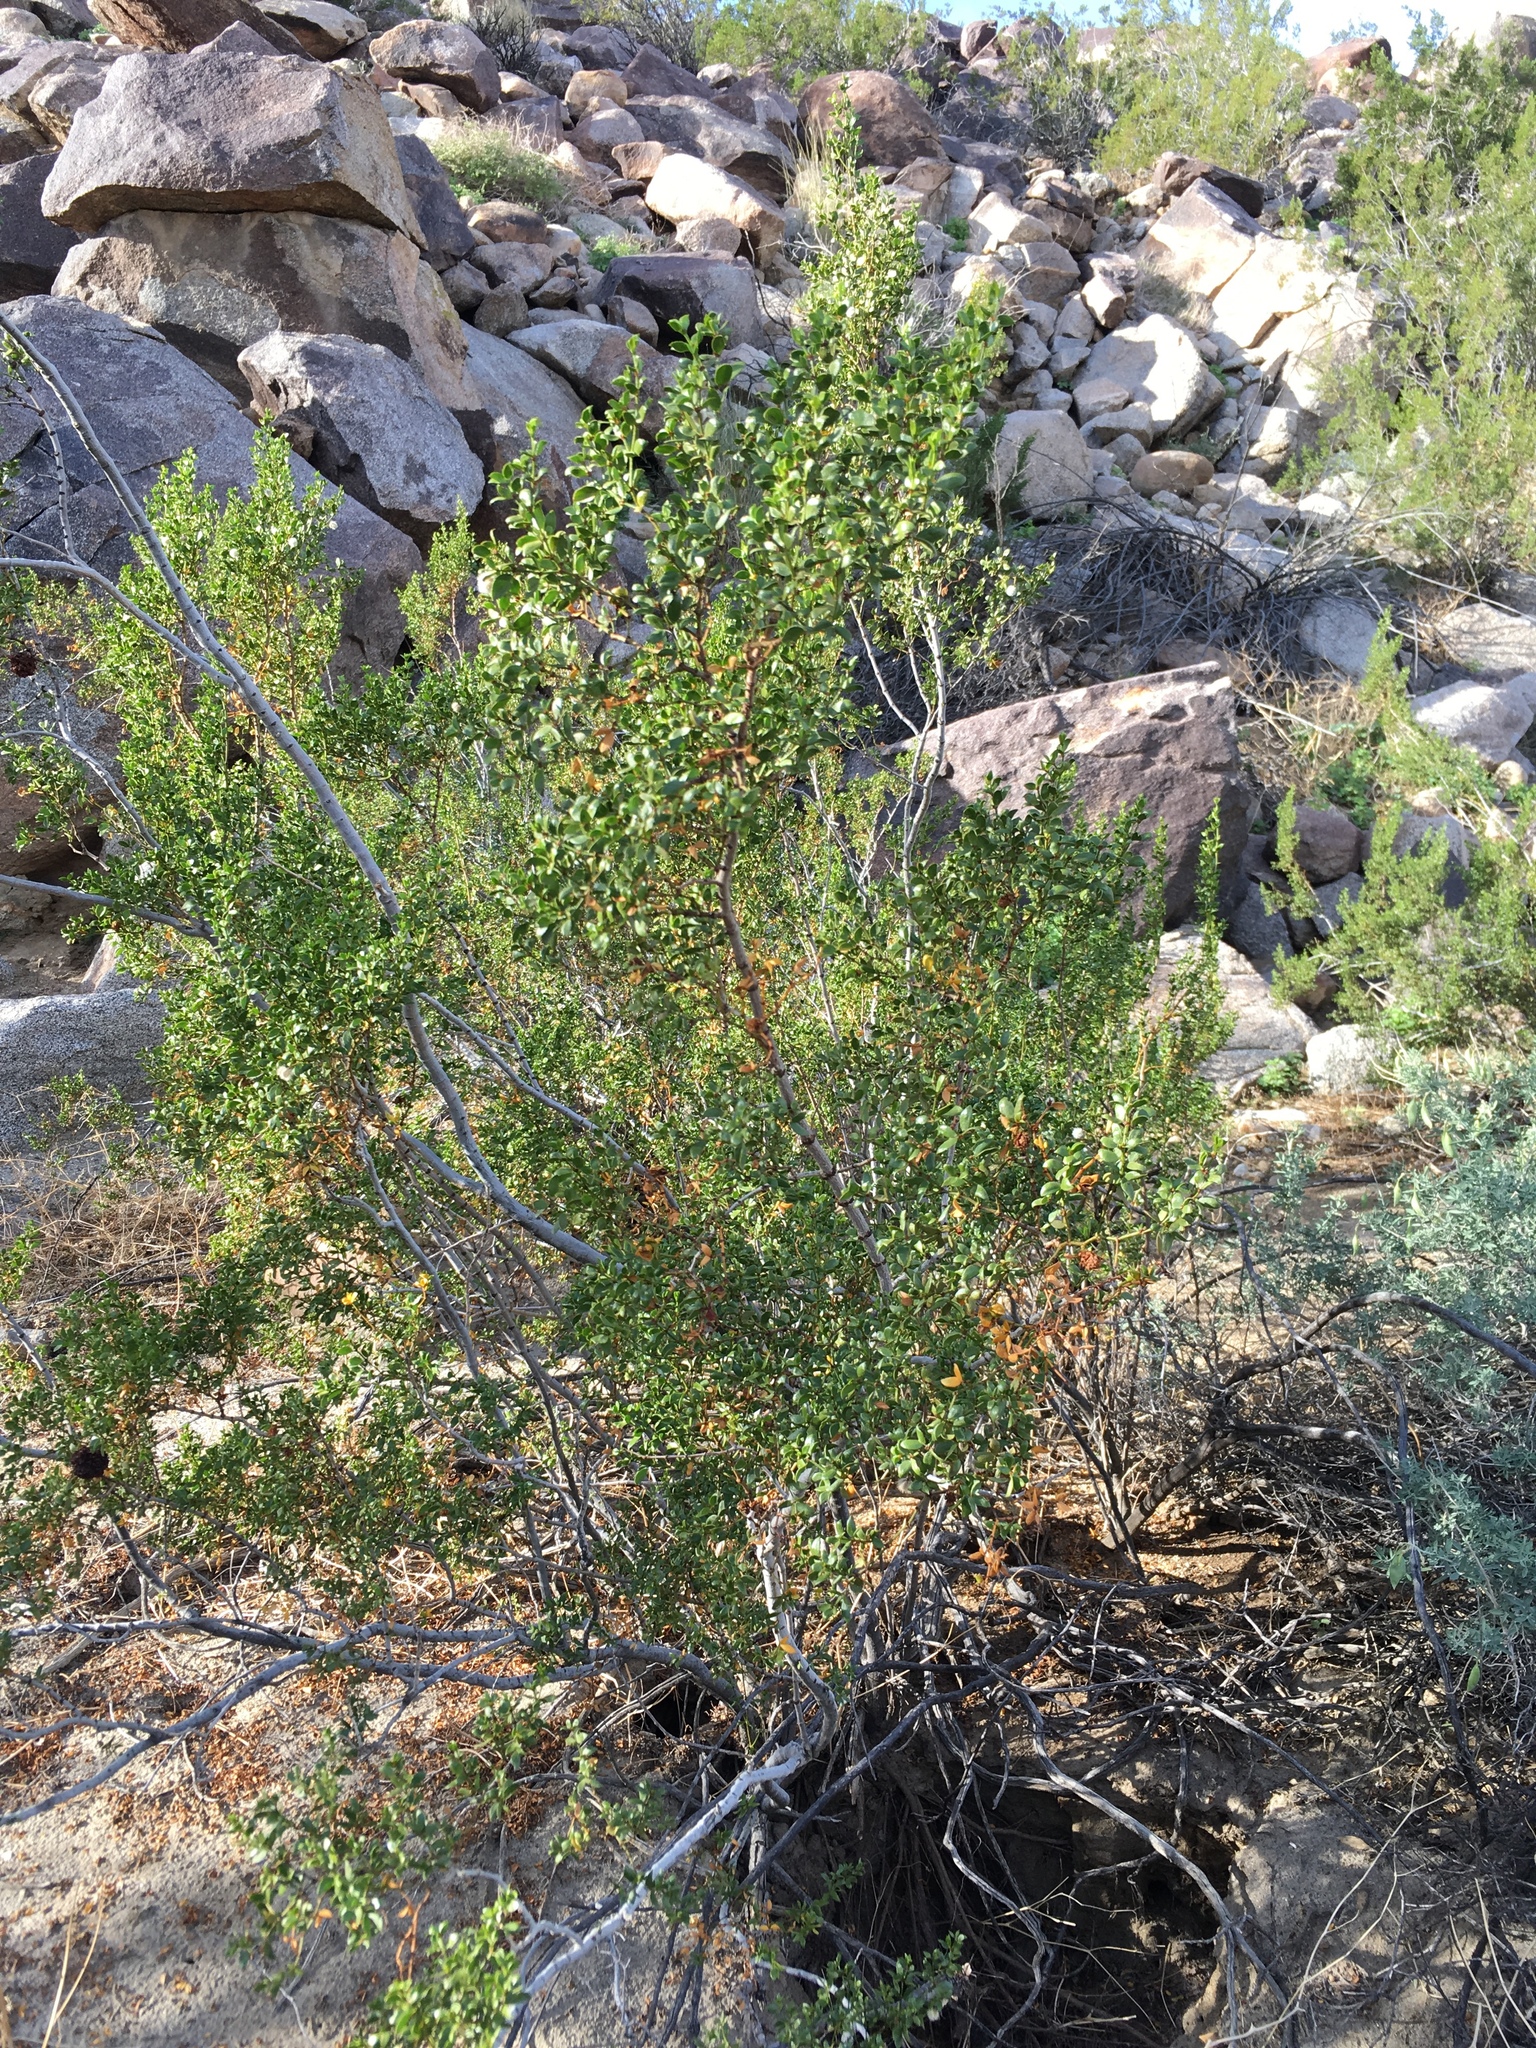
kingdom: Plantae
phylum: Tracheophyta
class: Magnoliopsida
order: Zygophyllales
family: Zygophyllaceae
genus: Larrea
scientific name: Larrea tridentata
